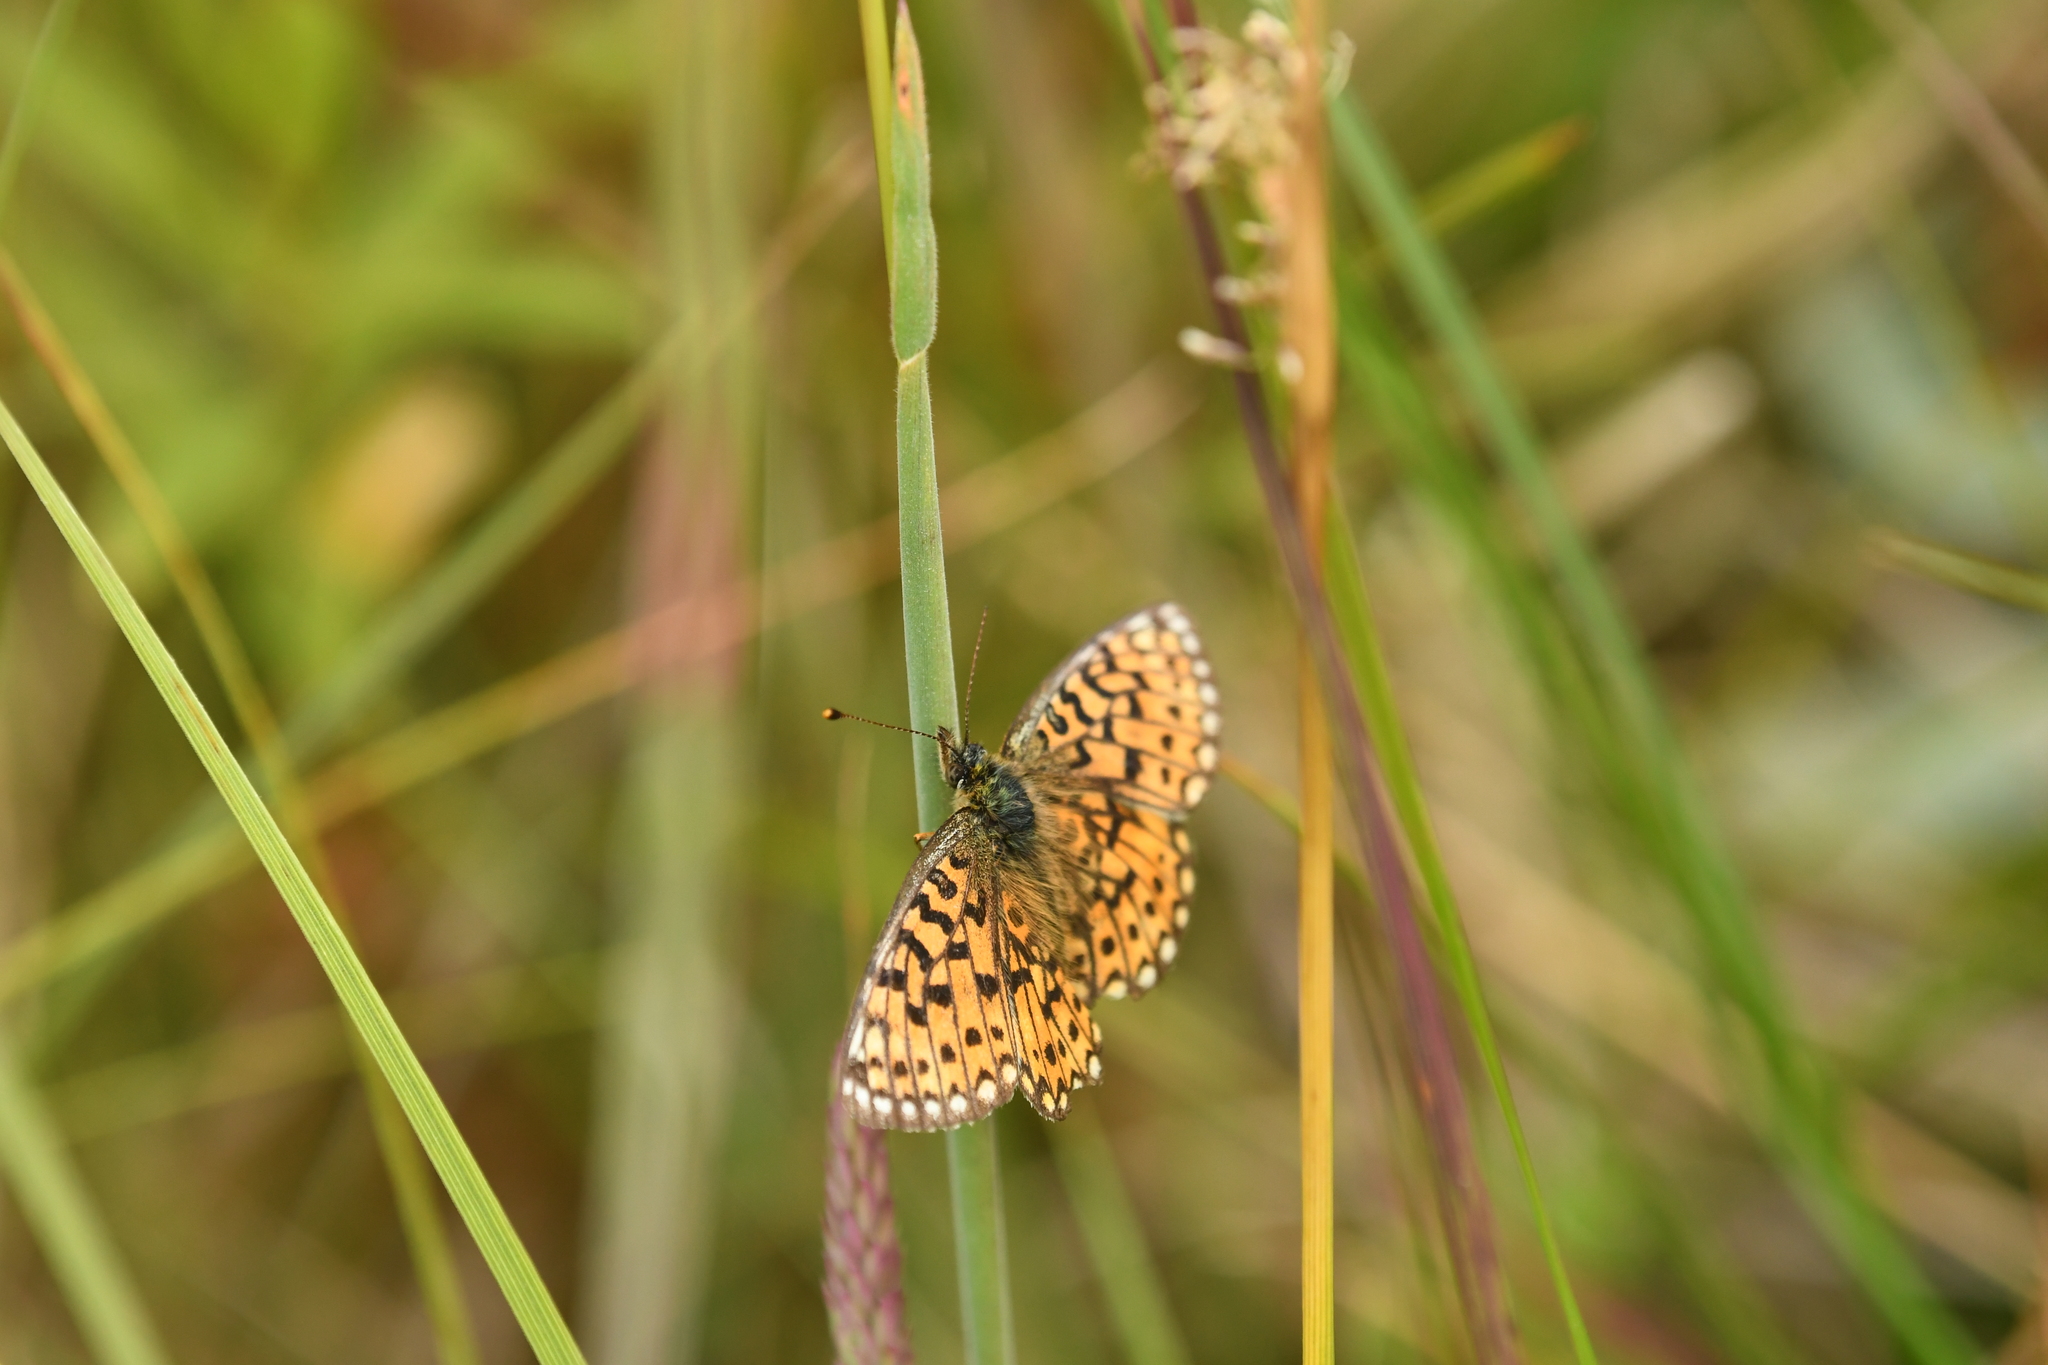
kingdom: Animalia
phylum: Arthropoda
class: Insecta
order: Lepidoptera
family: Nymphalidae
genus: Boloria
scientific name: Boloria selene
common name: Small pearl-bordered fritillary
